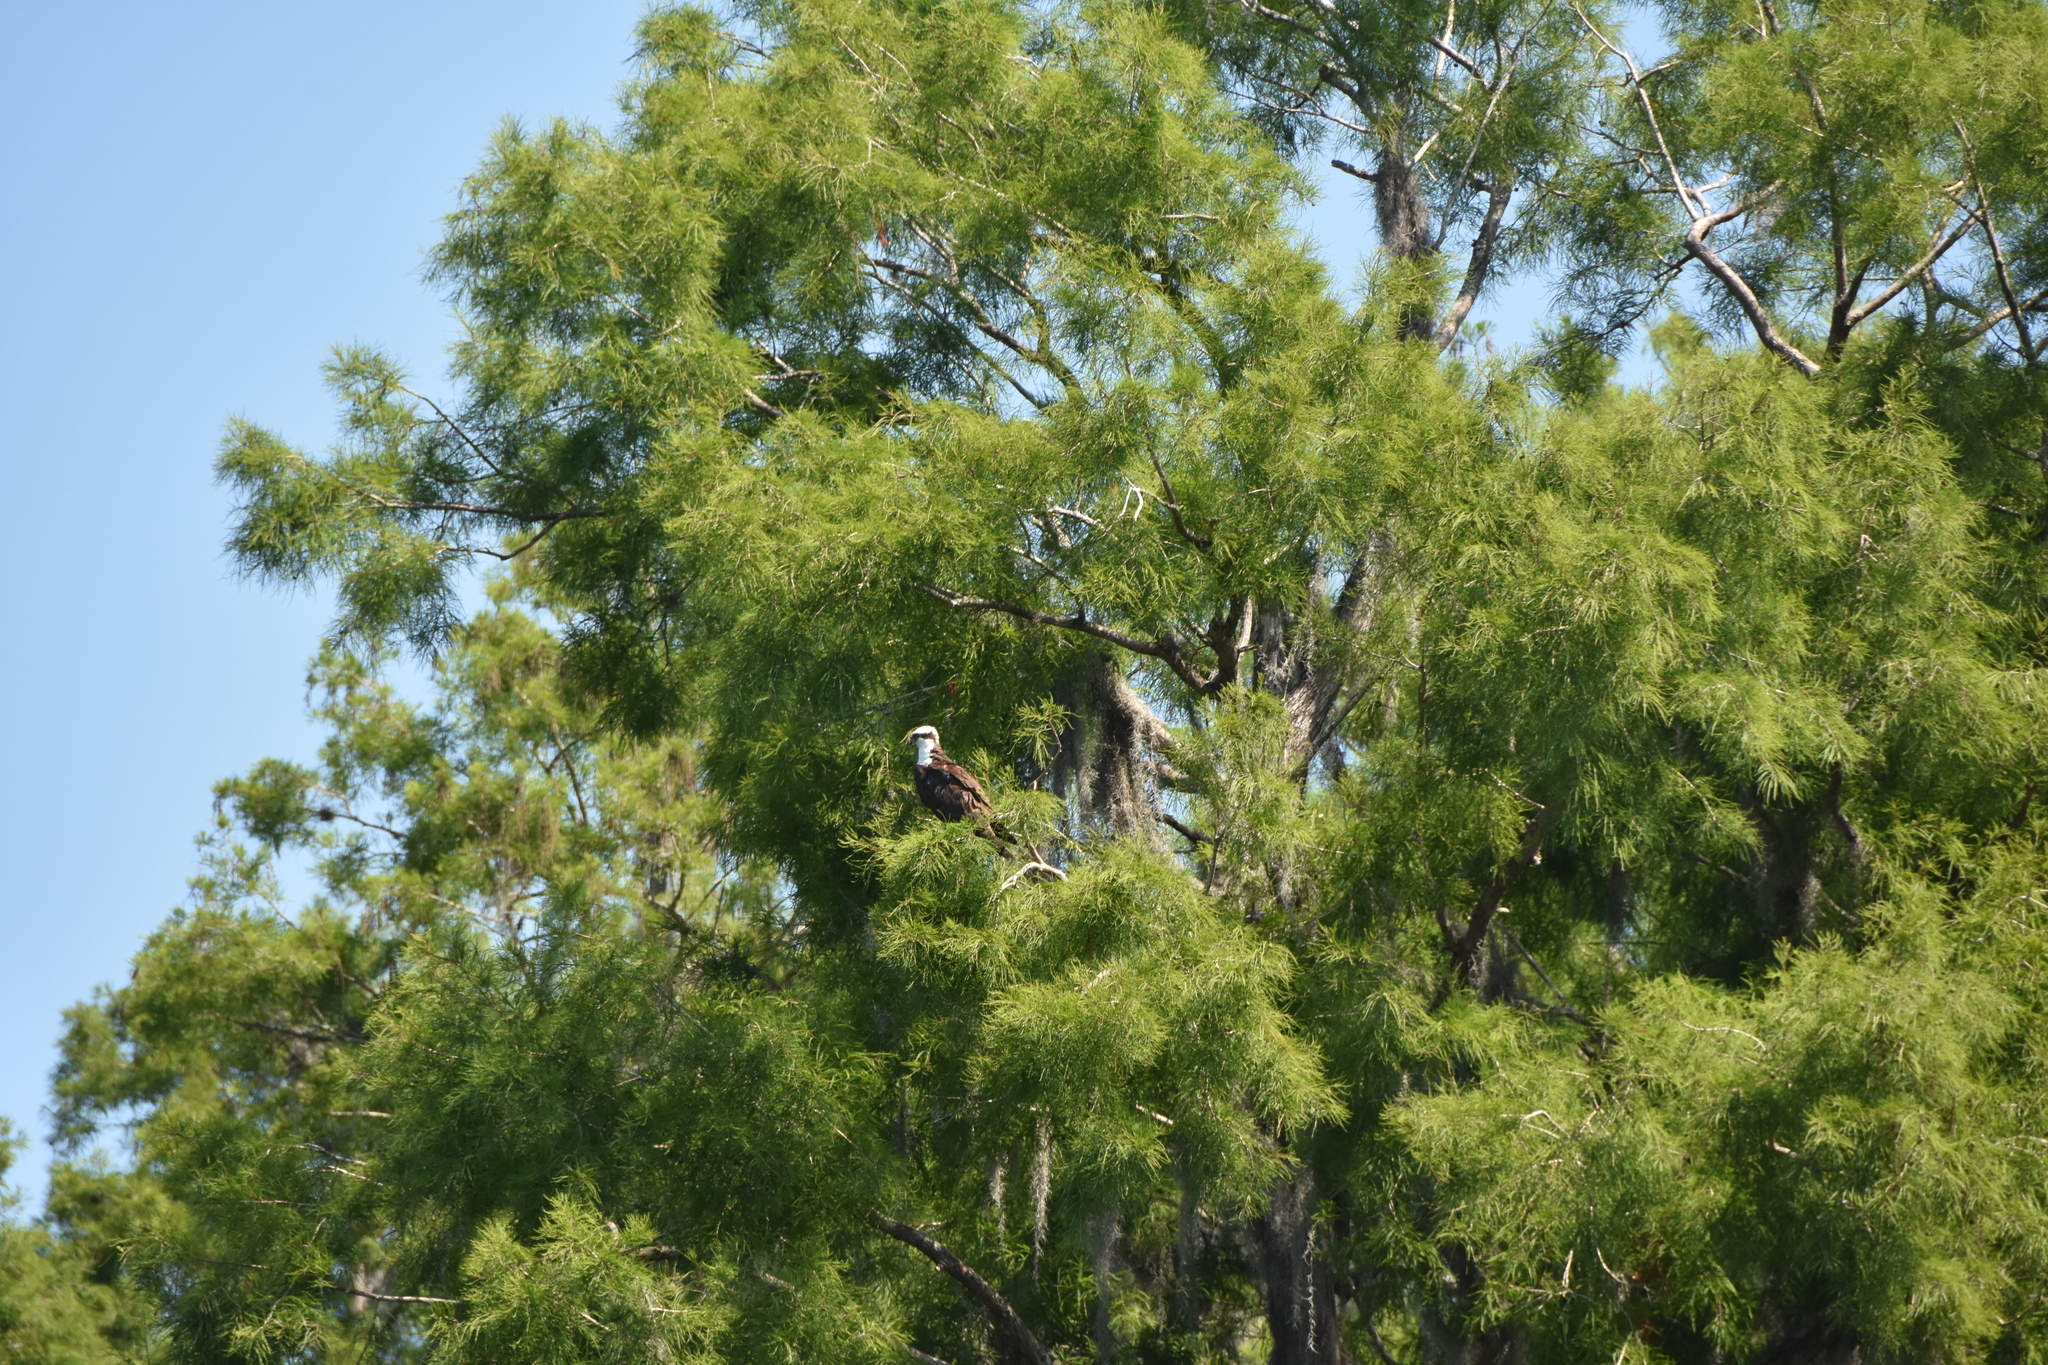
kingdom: Animalia
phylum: Chordata
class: Aves
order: Accipitriformes
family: Pandionidae
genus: Pandion
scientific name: Pandion haliaetus
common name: Osprey
